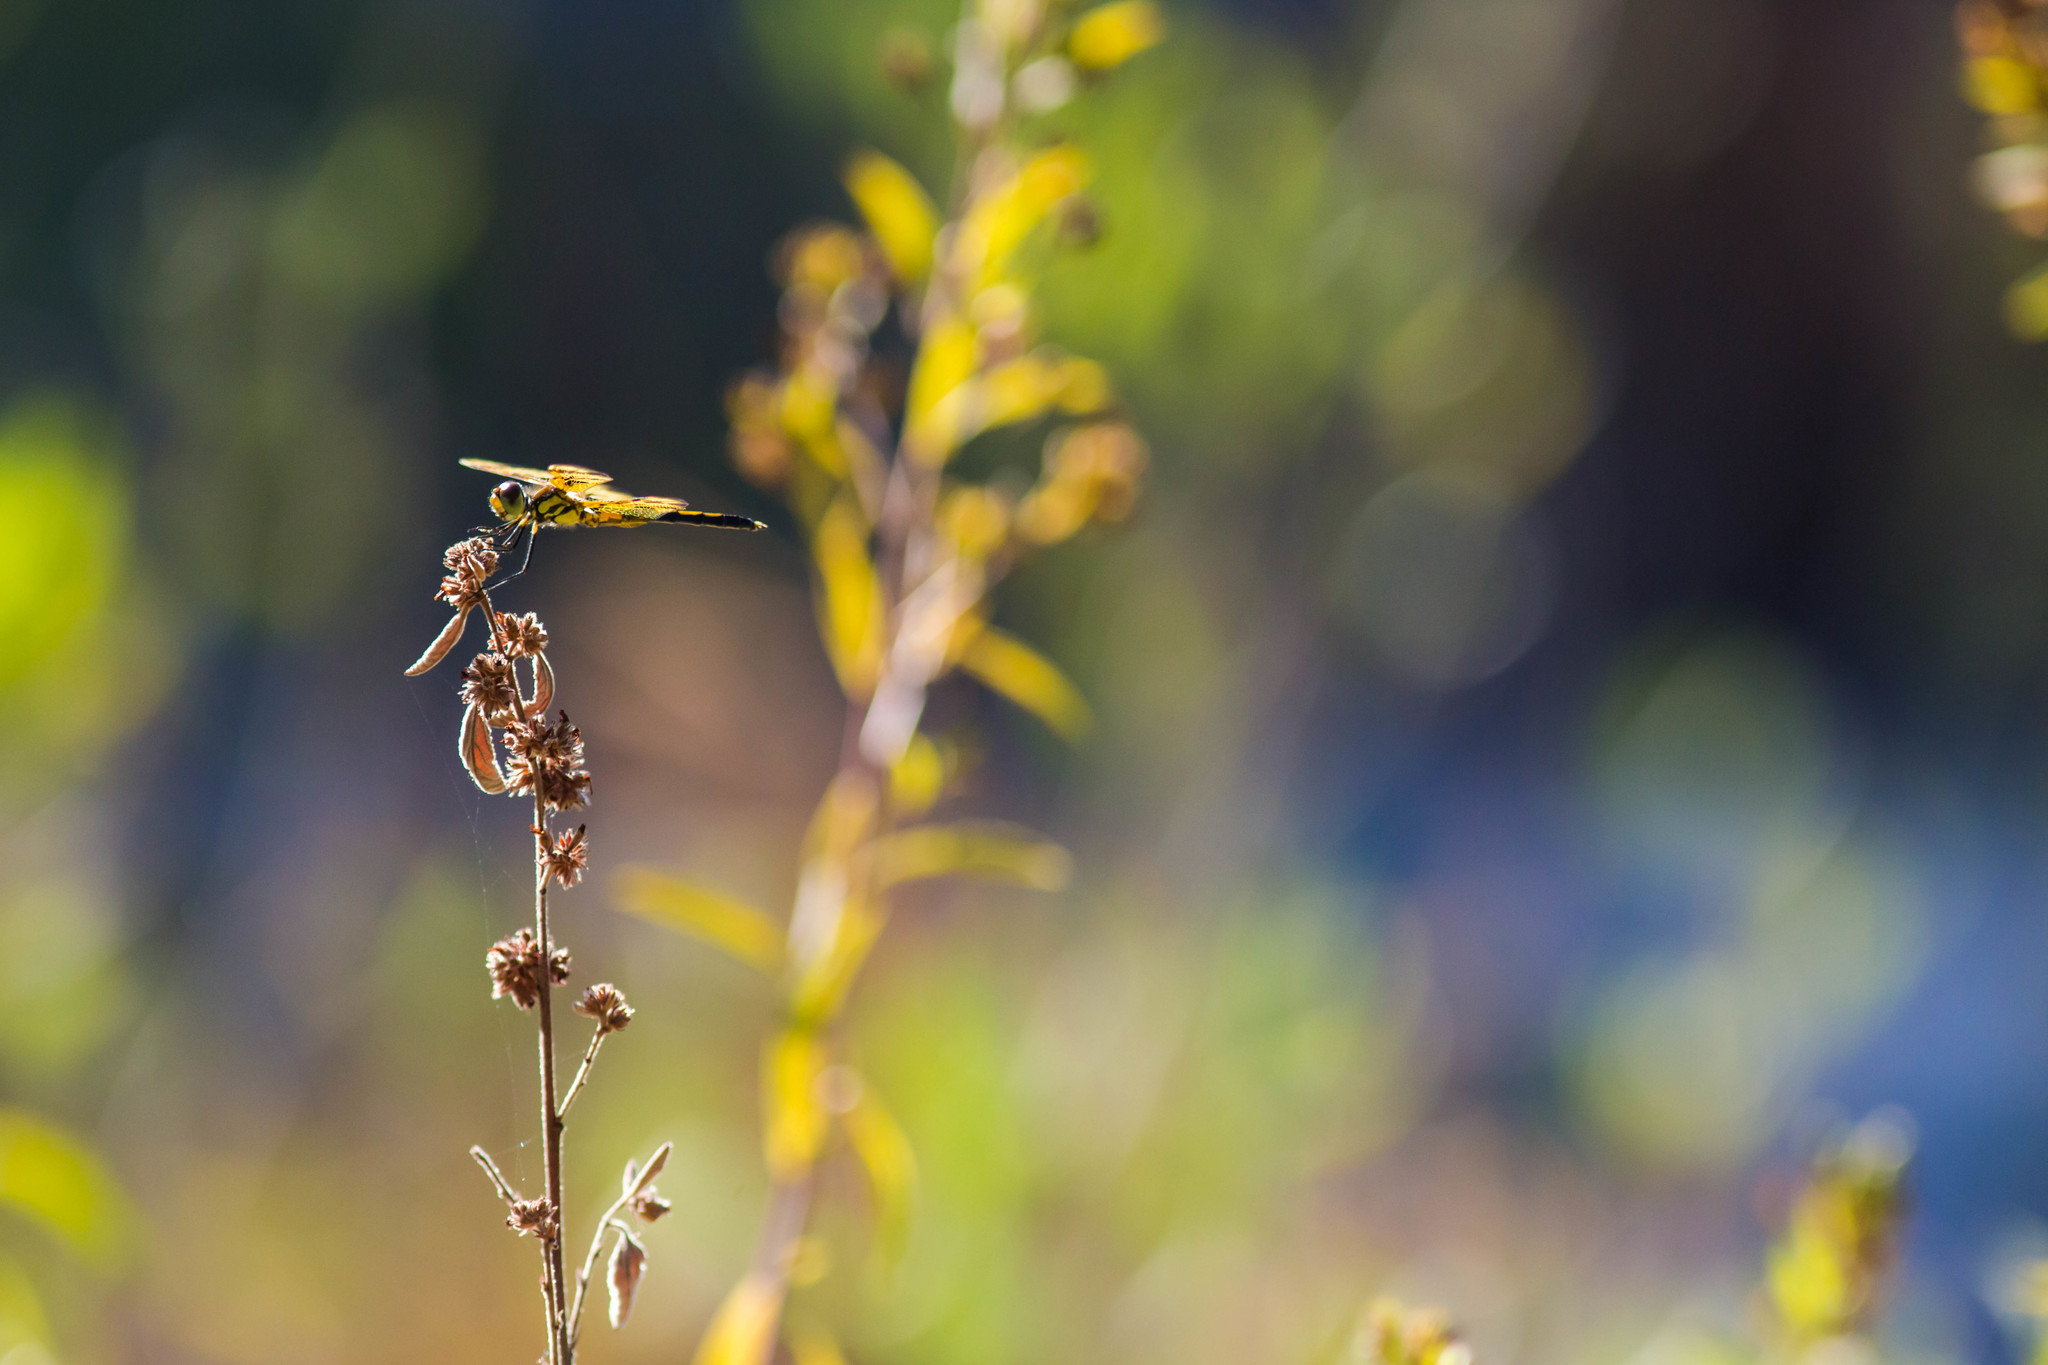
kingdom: Animalia
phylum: Arthropoda
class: Insecta
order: Odonata
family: Libellulidae
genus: Celithemis
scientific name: Celithemis eponina
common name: Halloween pennant
